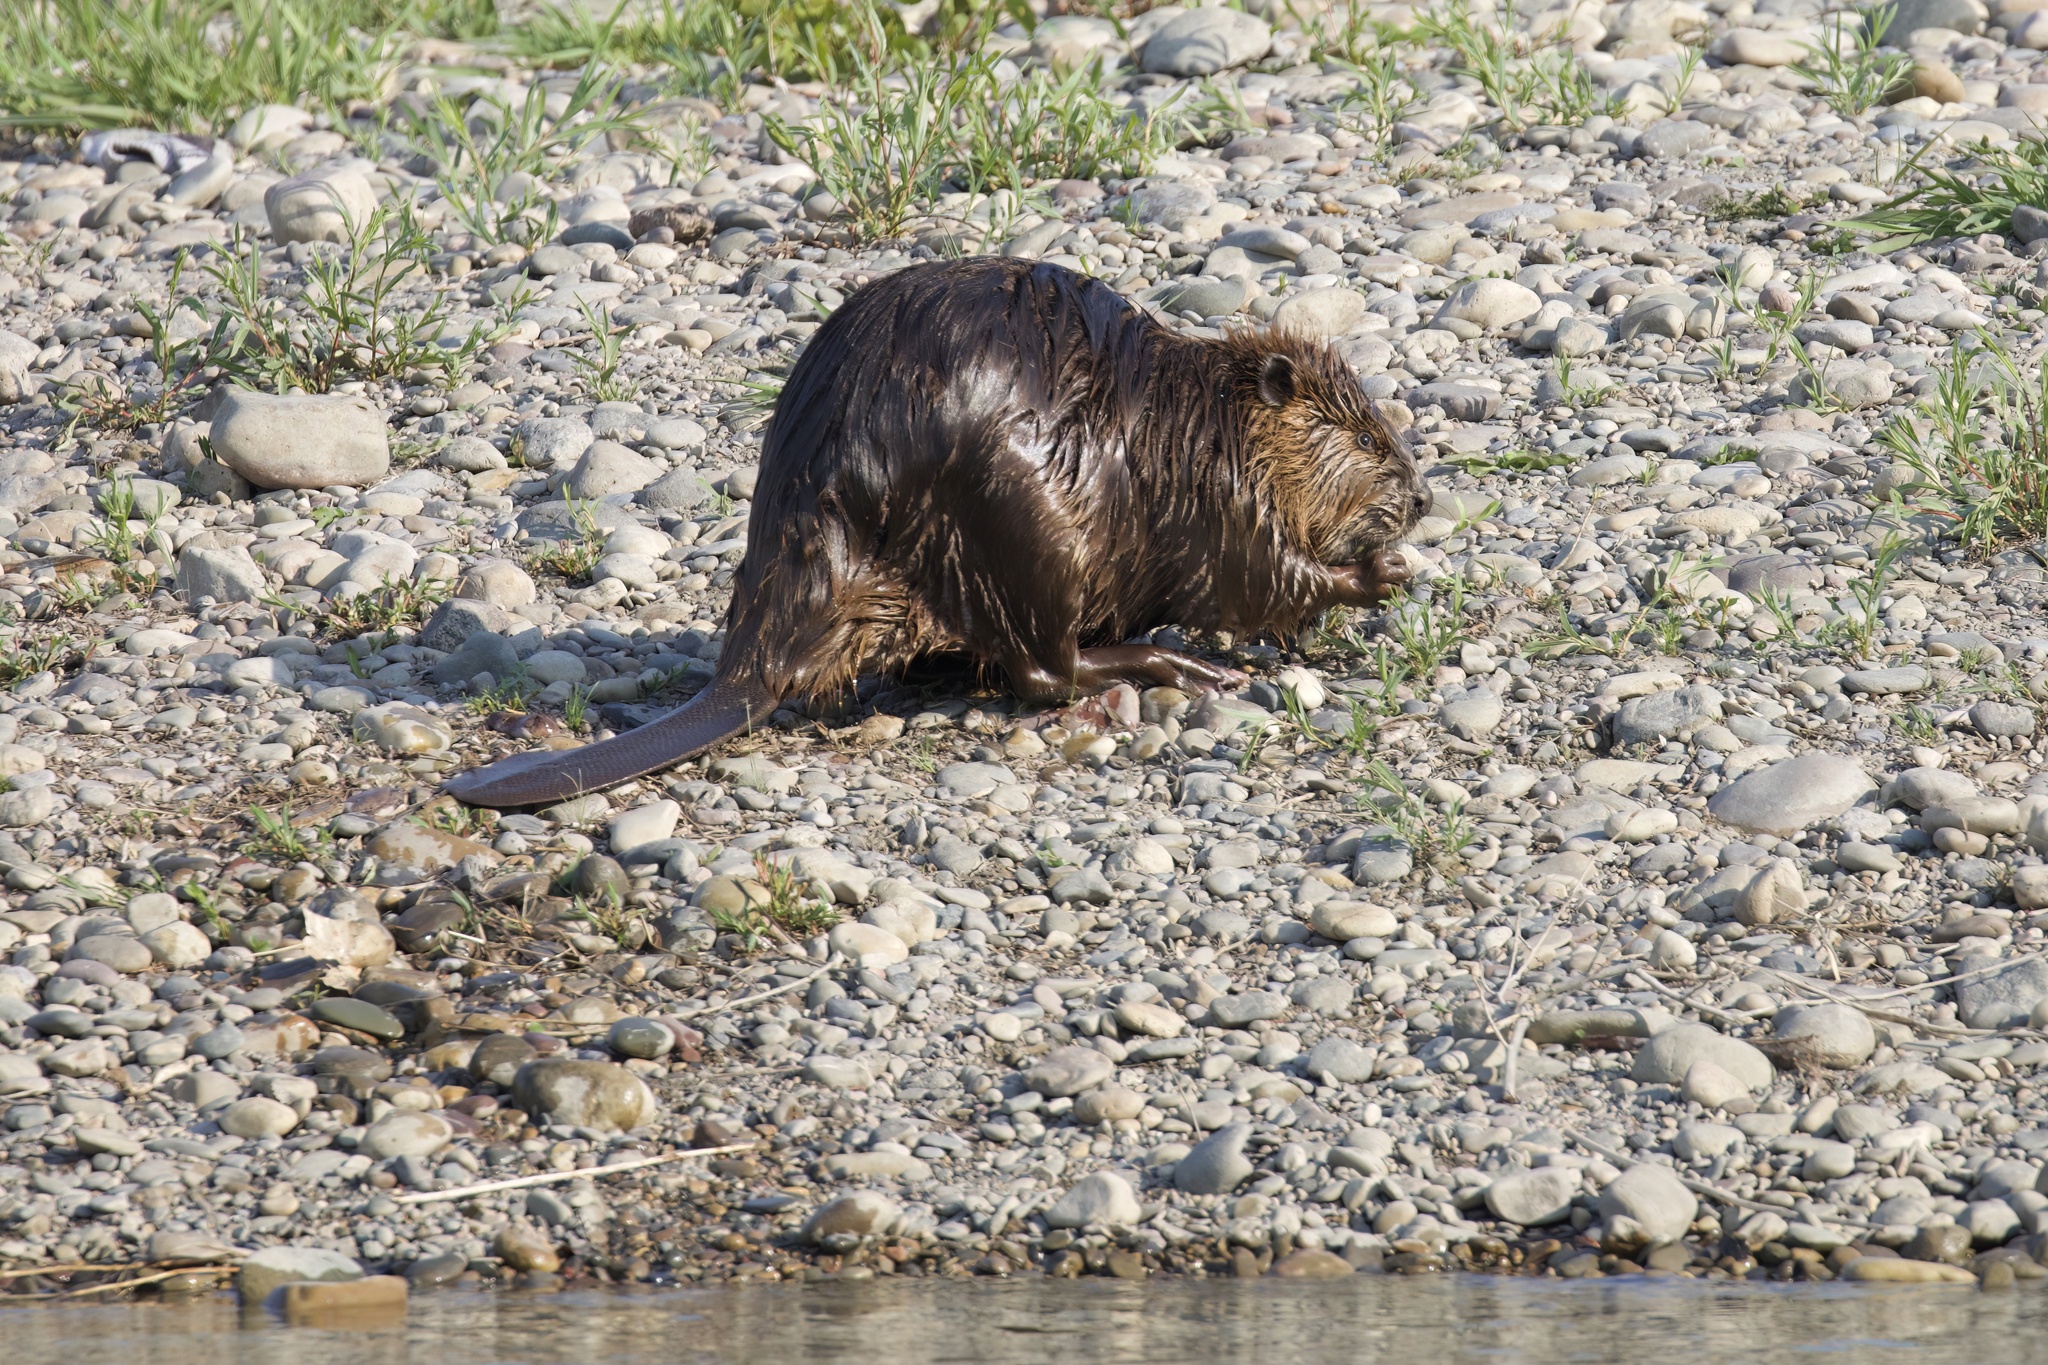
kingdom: Animalia
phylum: Chordata
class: Mammalia
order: Rodentia
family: Castoridae
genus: Castor
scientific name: Castor canadensis
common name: American beaver
